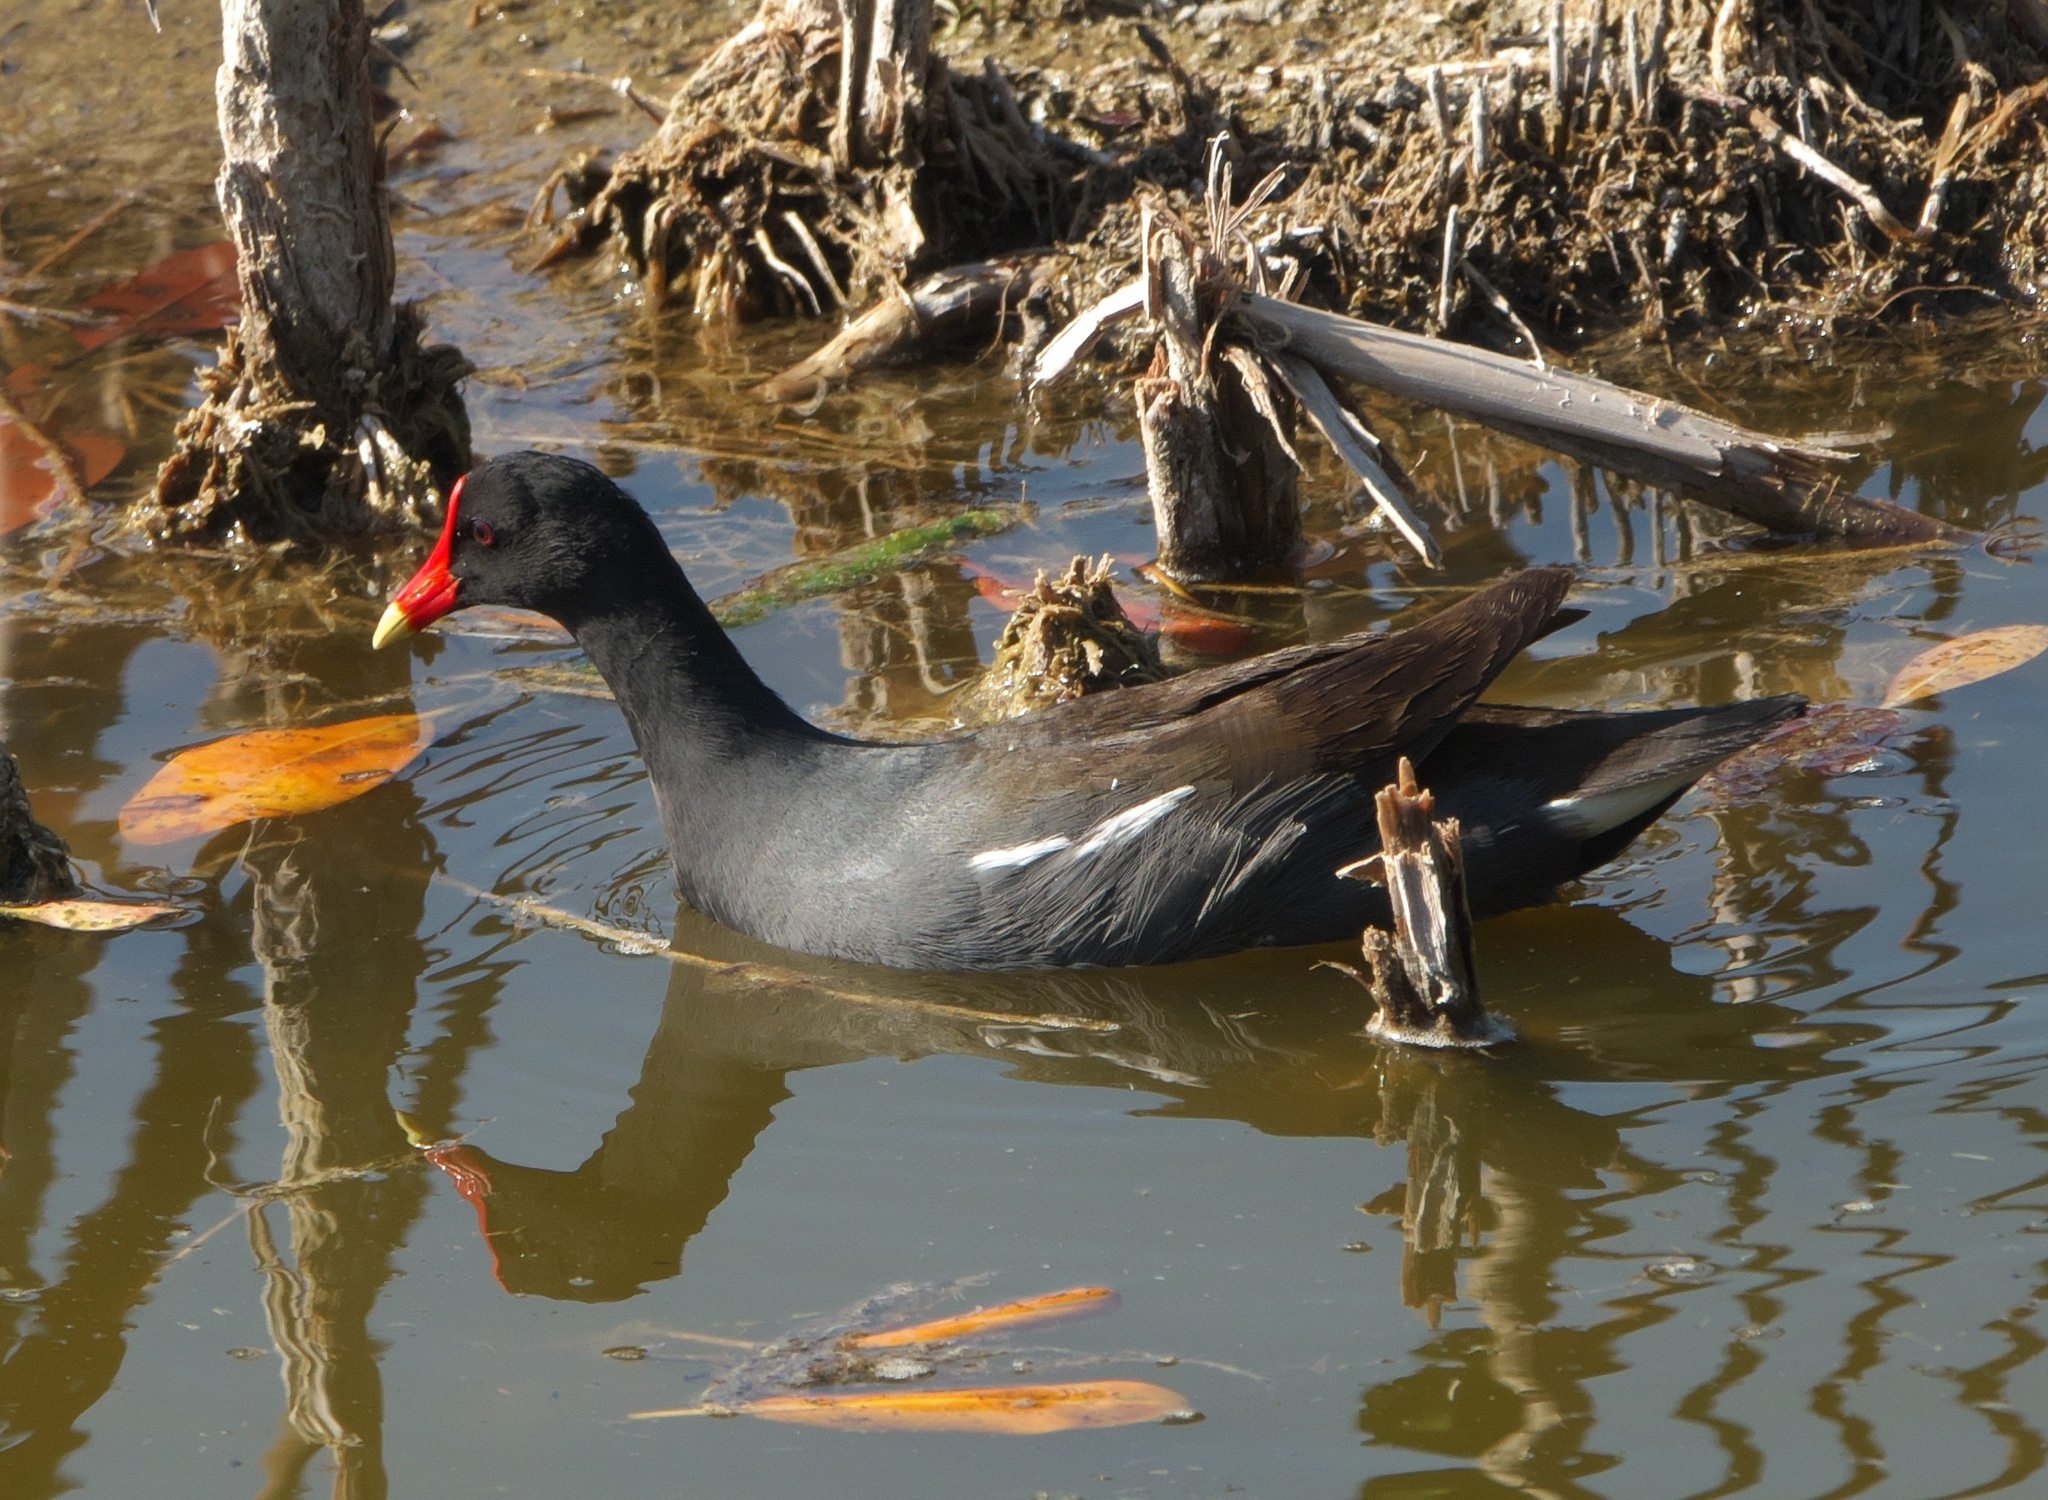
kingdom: Animalia
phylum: Chordata
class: Aves
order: Gruiformes
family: Rallidae
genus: Gallinula
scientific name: Gallinula chloropus
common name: Common moorhen
